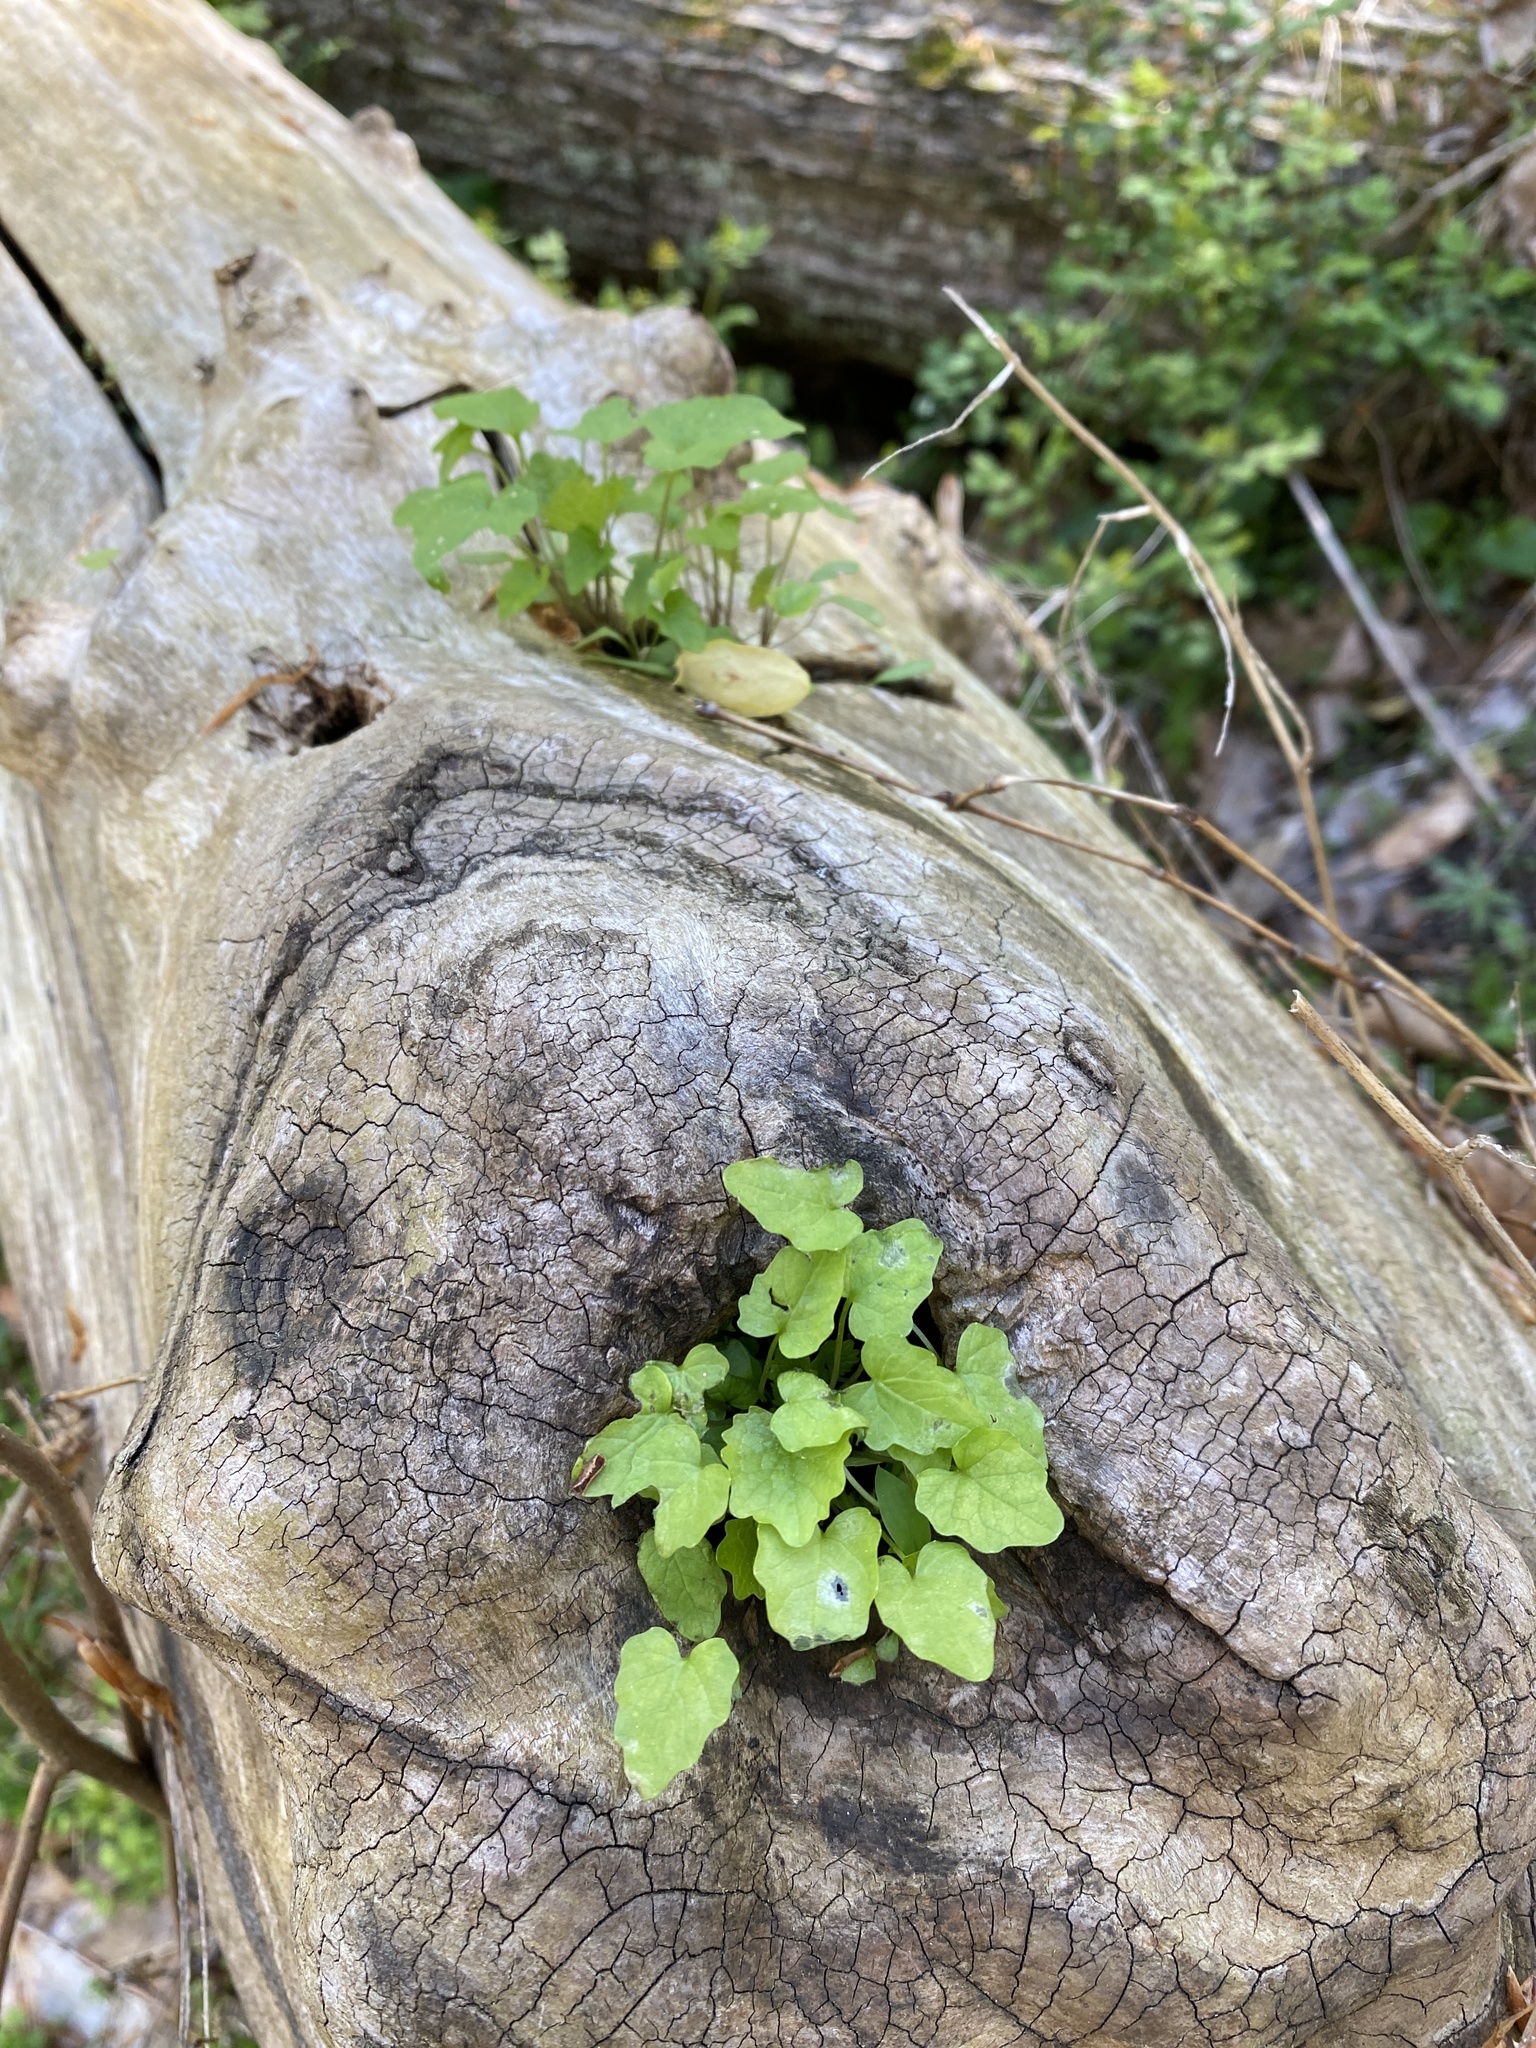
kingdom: Plantae
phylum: Tracheophyta
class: Magnoliopsida
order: Brassicales
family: Brassicaceae
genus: Alliaria
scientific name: Alliaria petiolata
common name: Garlic mustard
